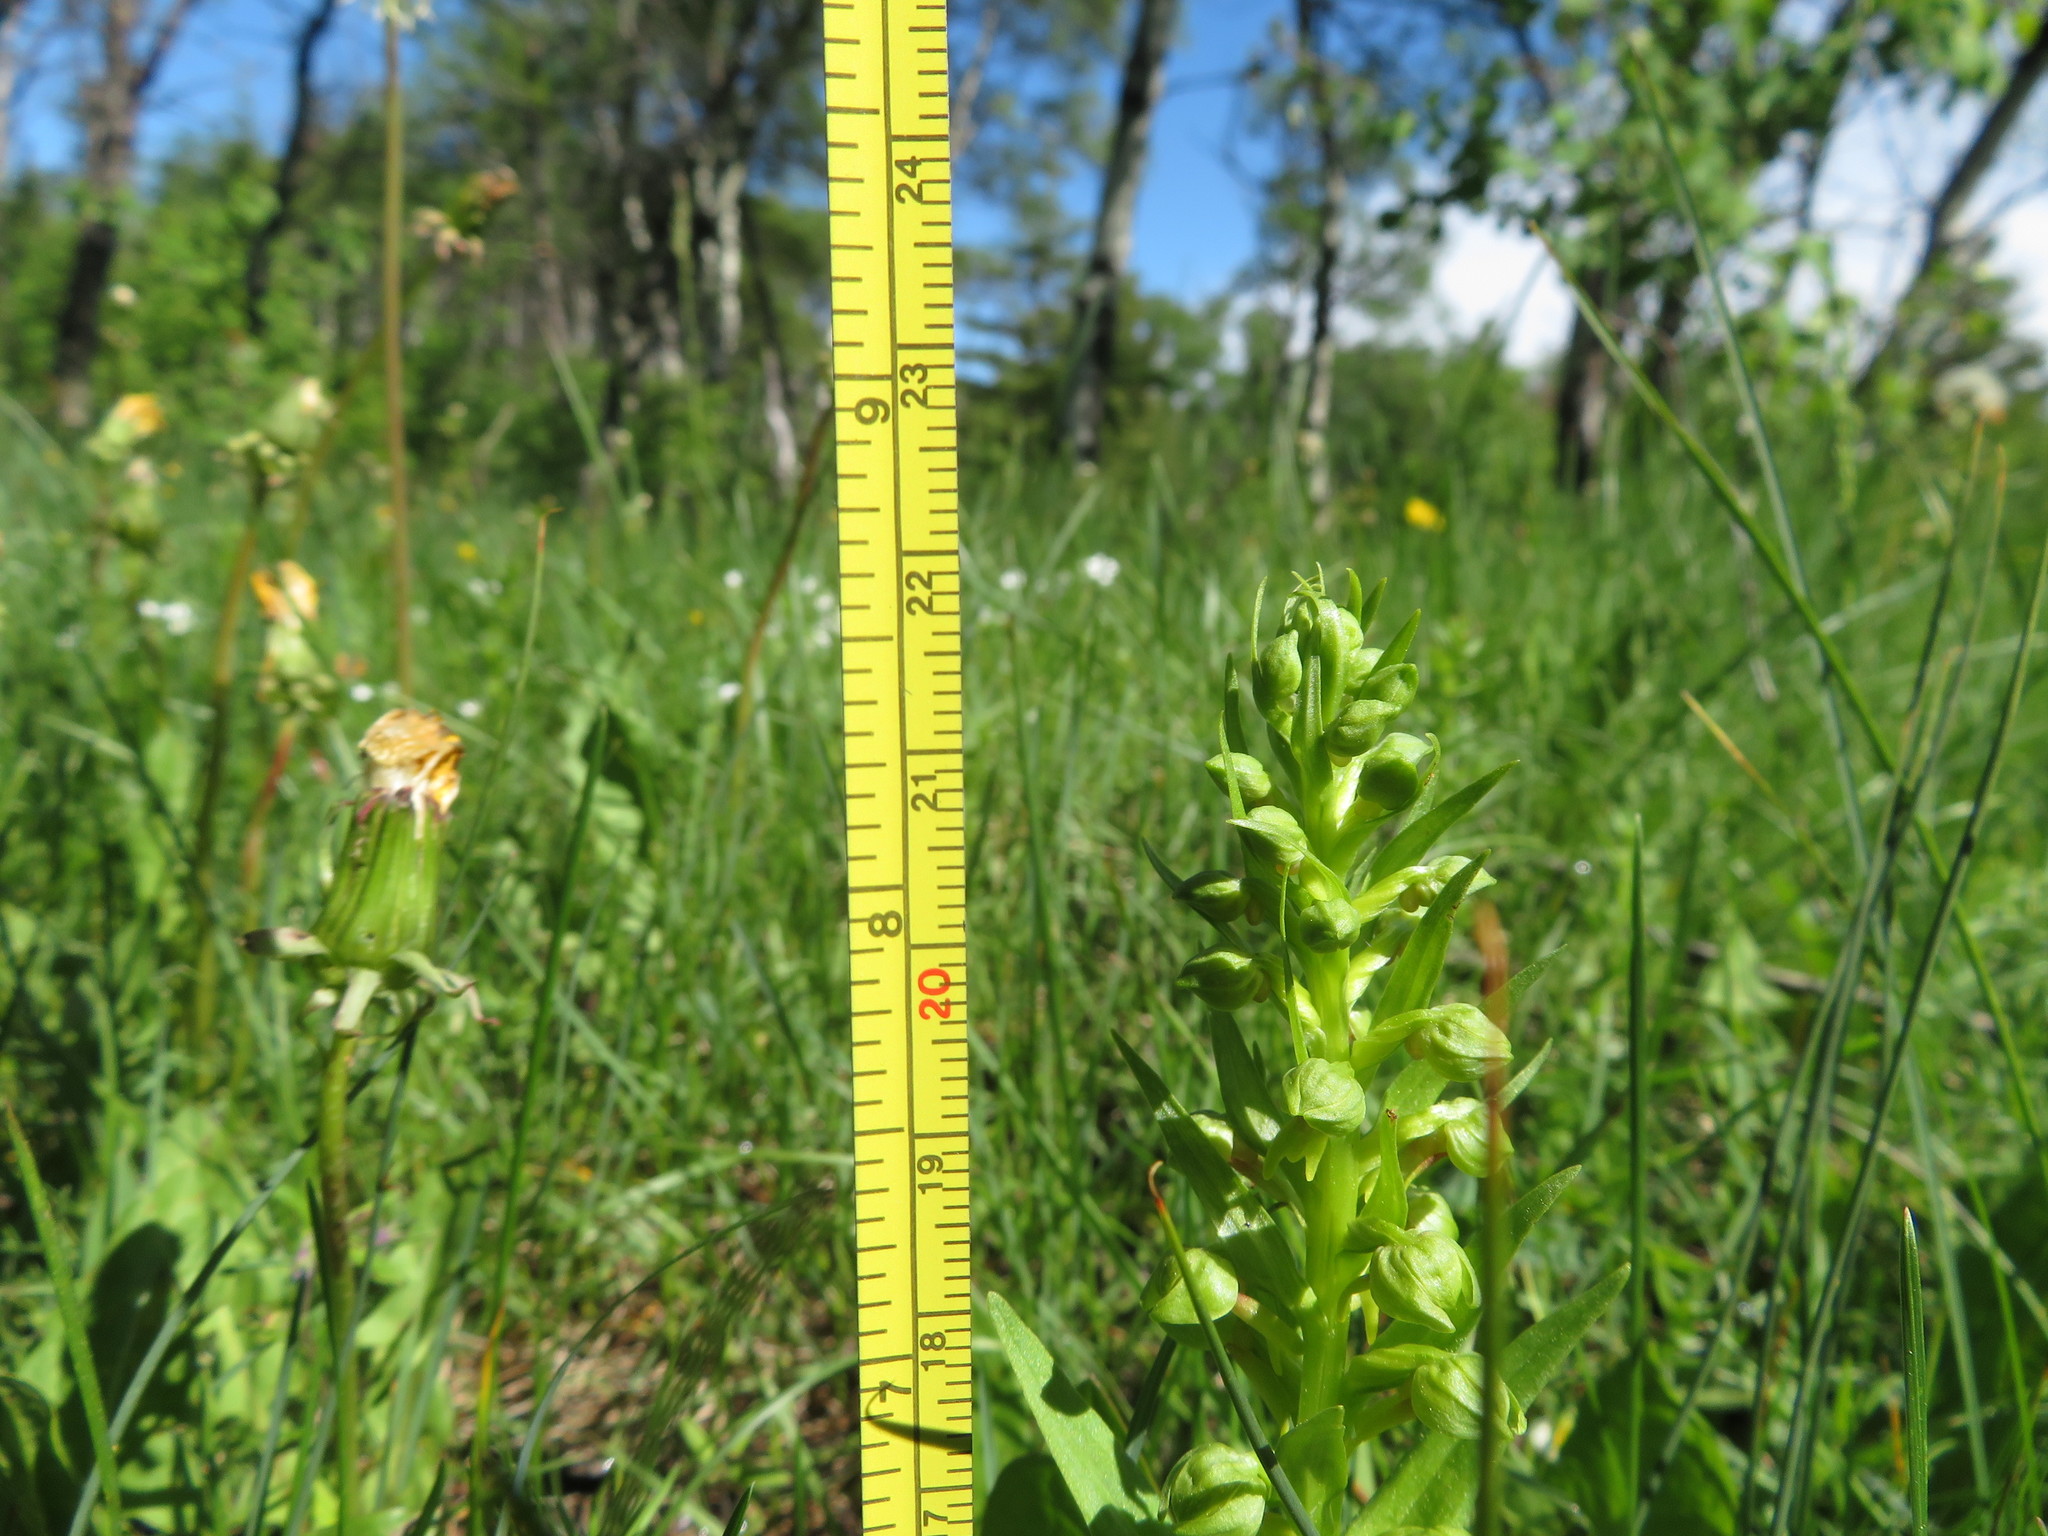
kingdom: Plantae
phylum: Tracheophyta
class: Liliopsida
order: Asparagales
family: Orchidaceae
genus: Dactylorhiza
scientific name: Dactylorhiza viridis
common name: Longbract frog orchid
